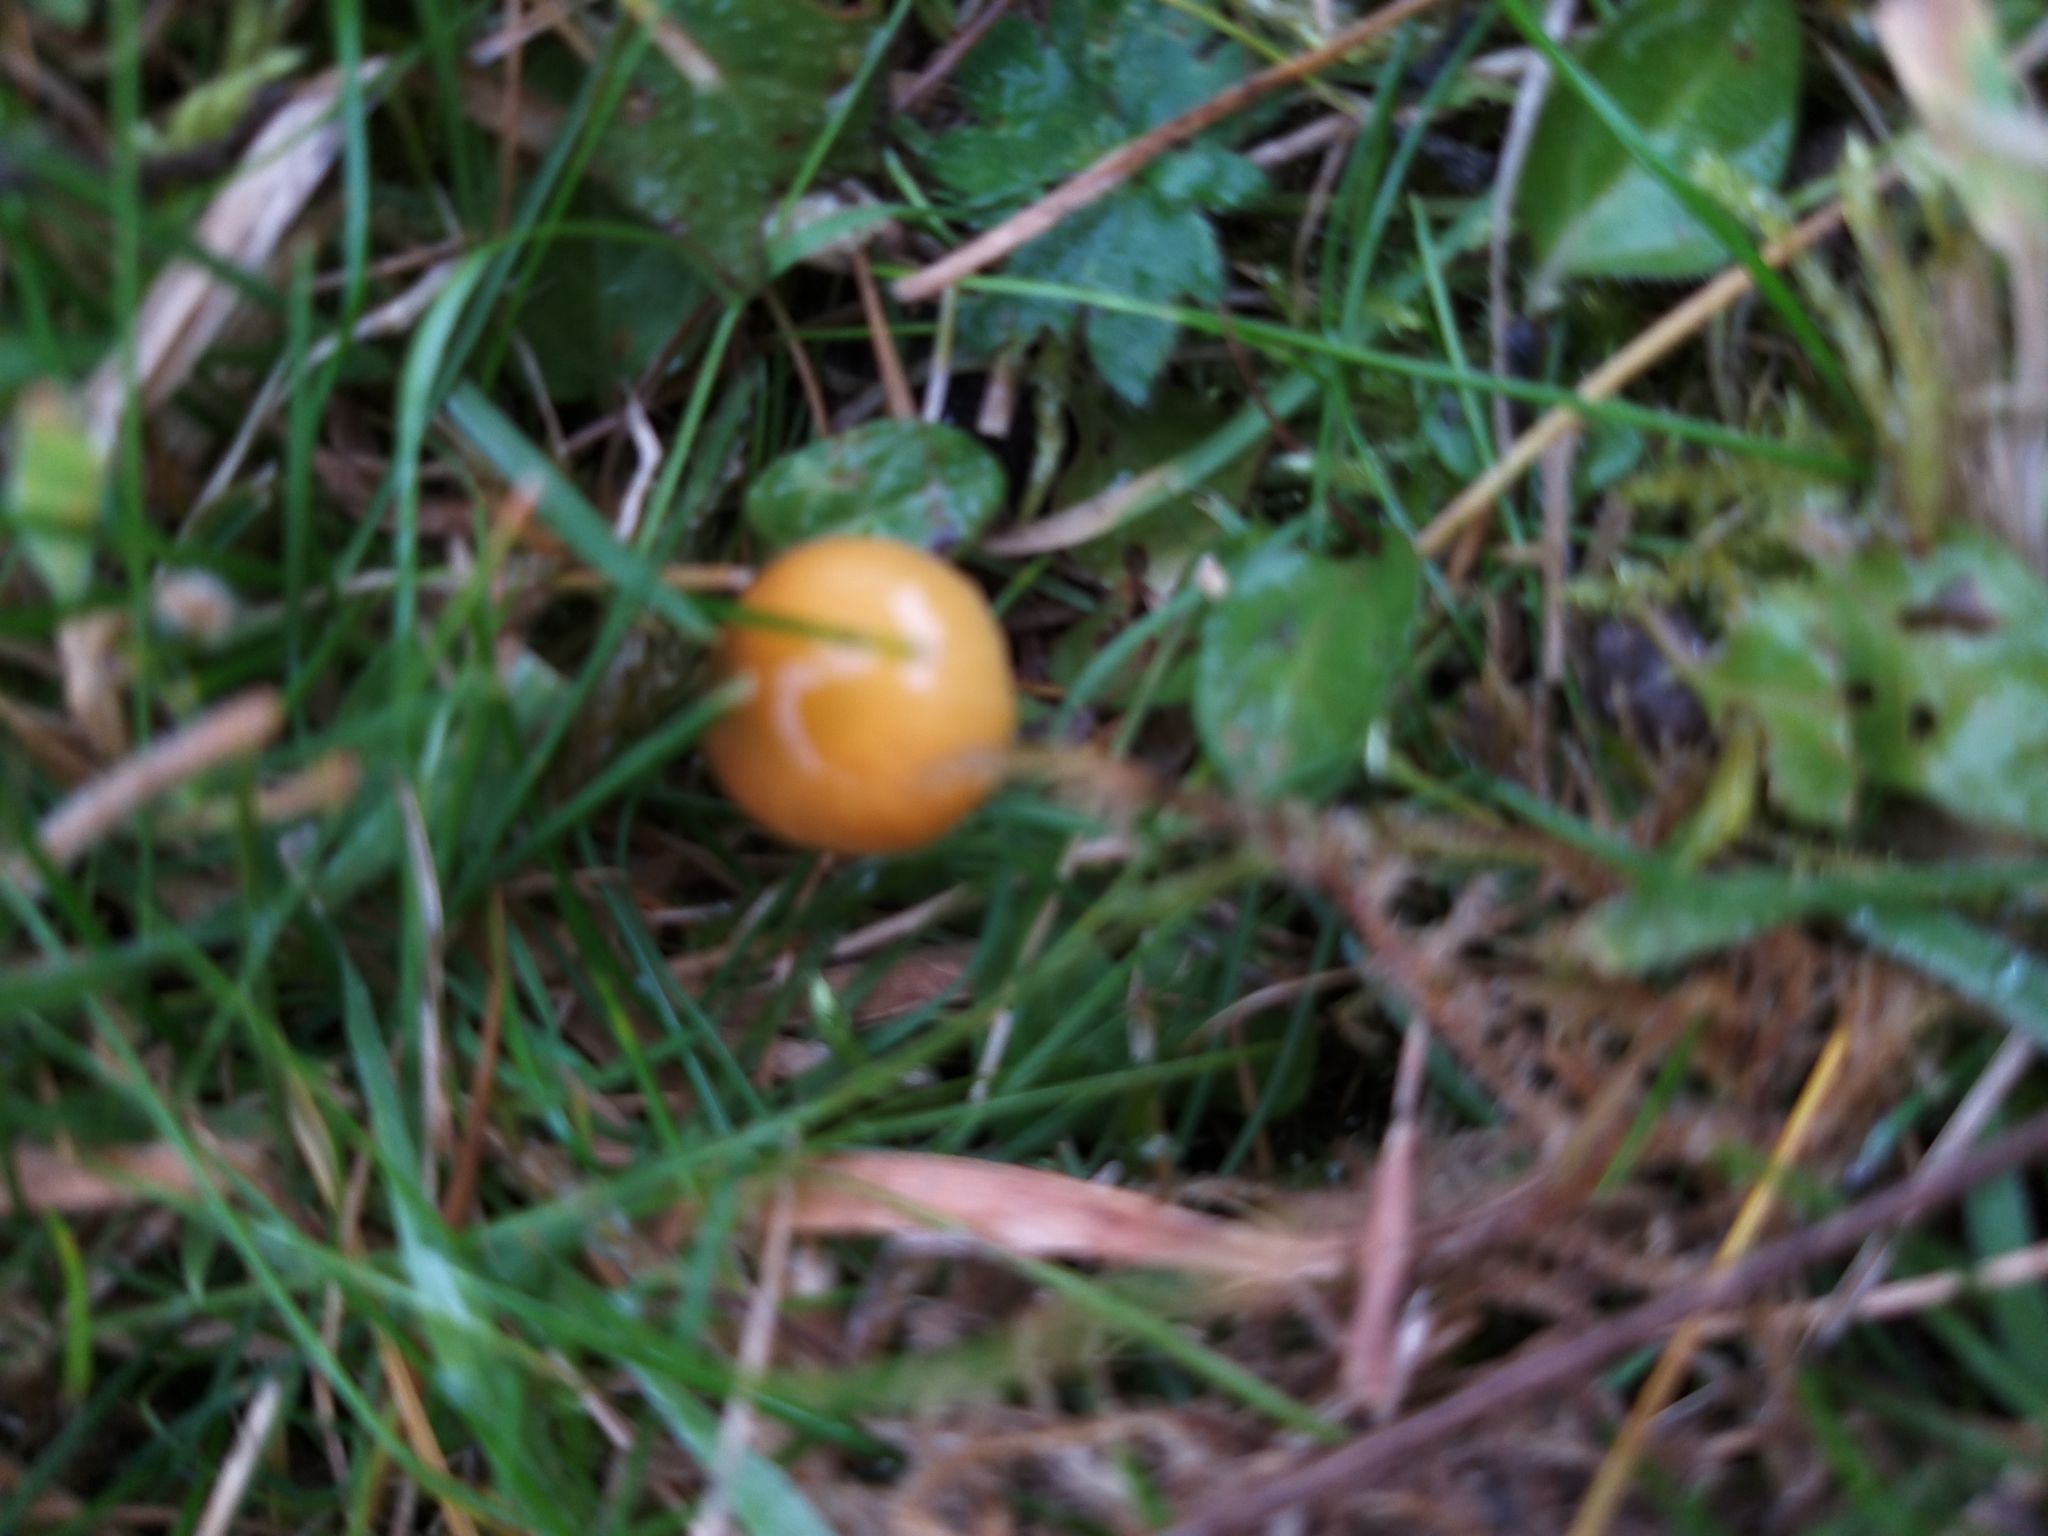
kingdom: Fungi
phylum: Basidiomycota
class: Agaricomycetes
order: Agaricales
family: Hygrophoraceae
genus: Gliophorus
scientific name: Gliophorus psittacinus
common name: Parrot wax-cap
